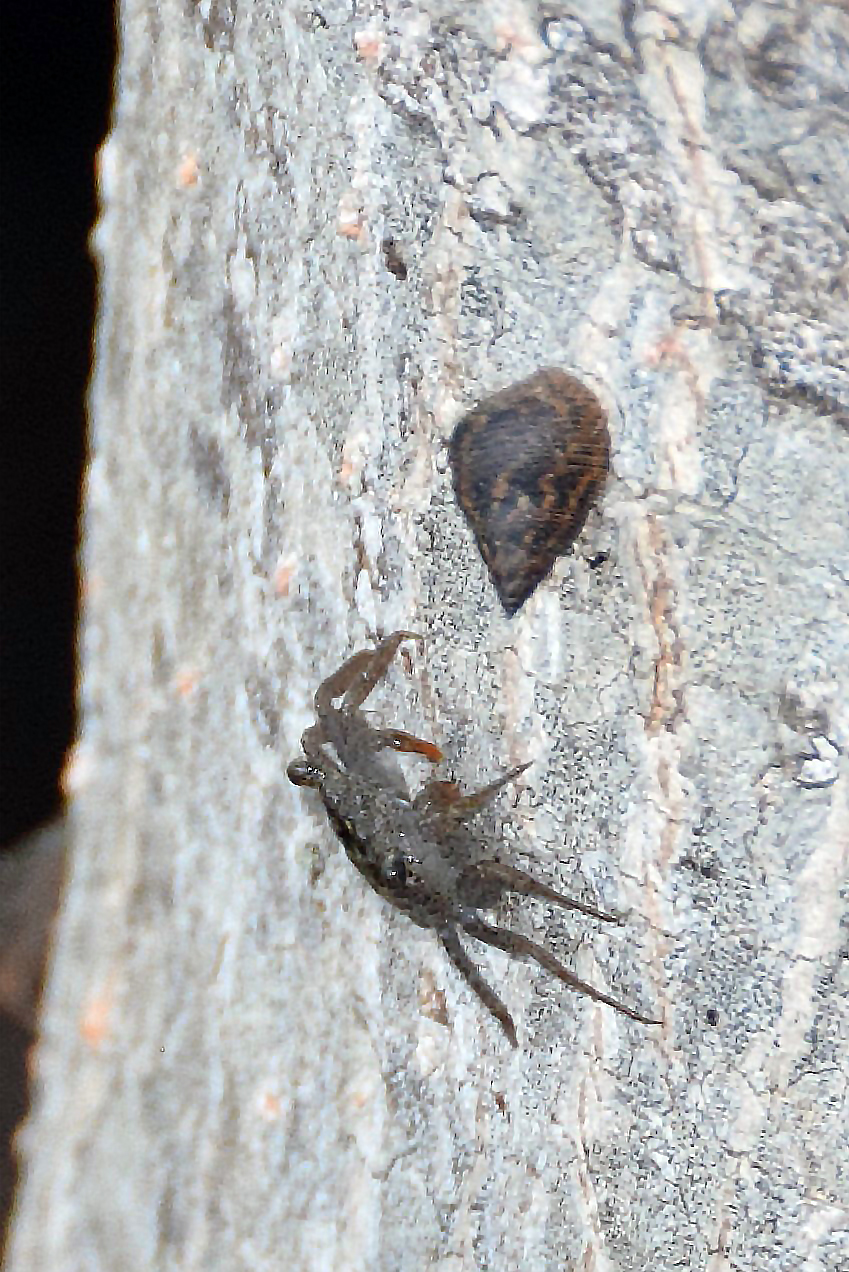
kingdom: Animalia
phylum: Arthropoda
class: Malacostraca
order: Decapoda
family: Sesarmidae
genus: Aratus
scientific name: Aratus pisonii
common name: Mangrove crab
